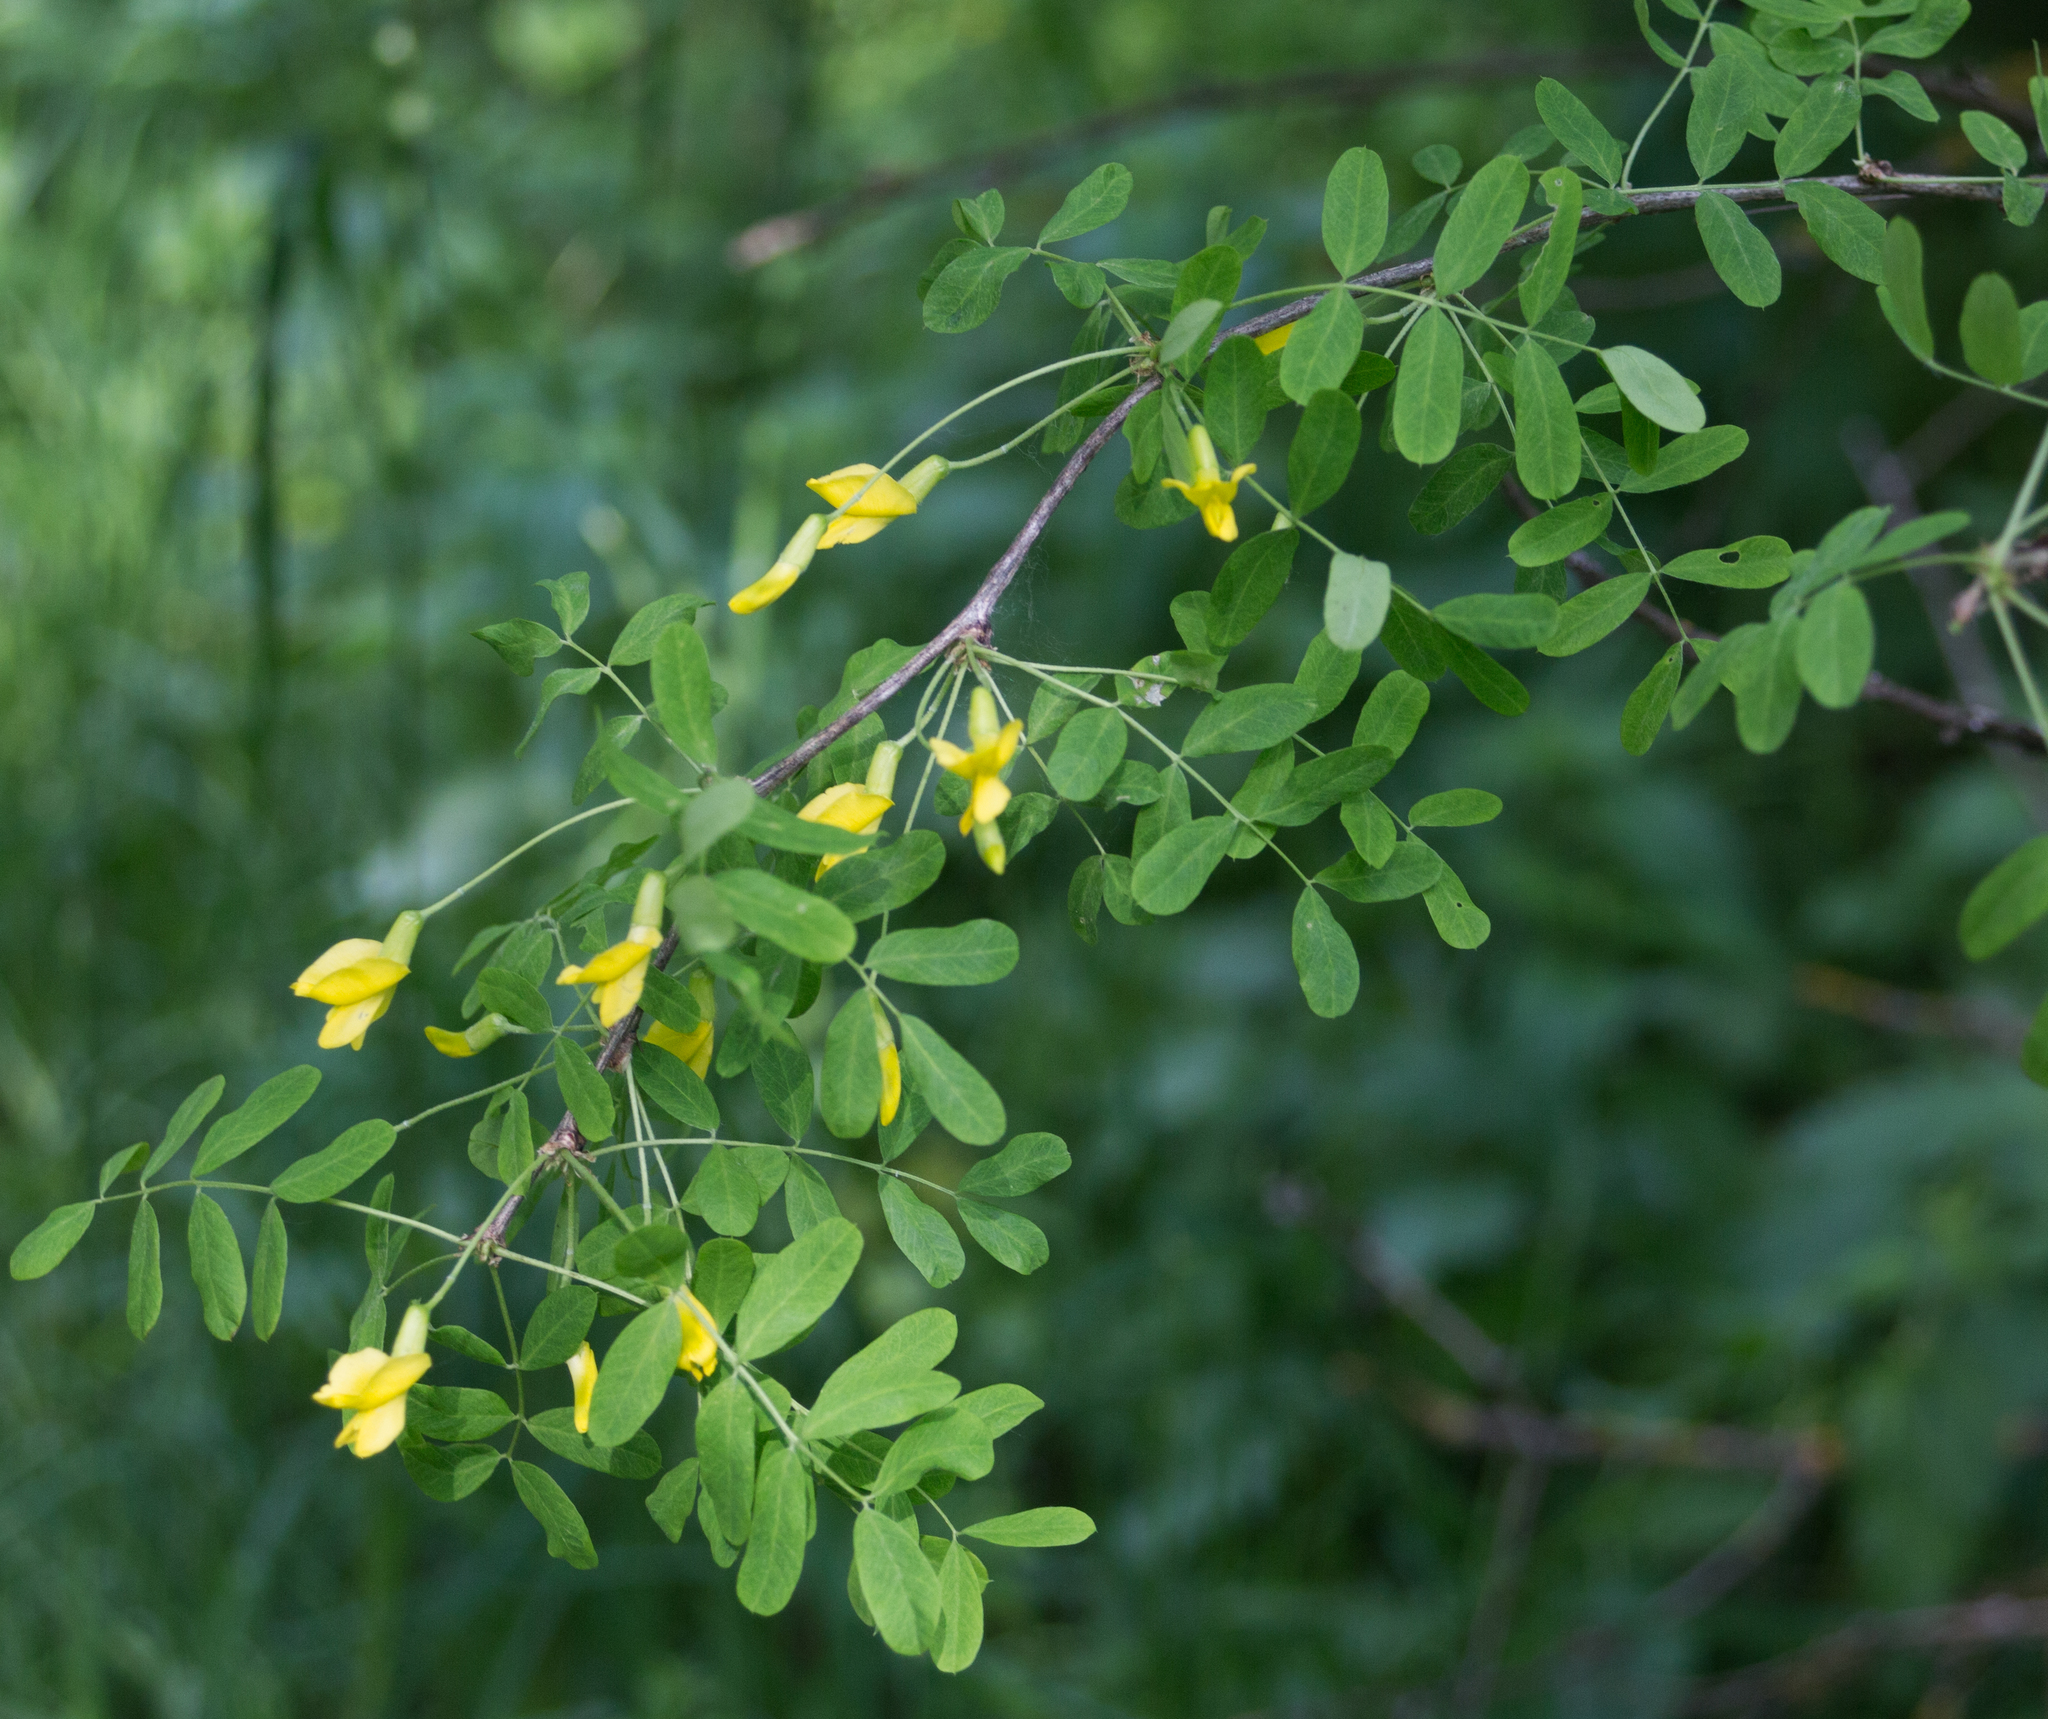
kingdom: Plantae
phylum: Tracheophyta
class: Magnoliopsida
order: Fabales
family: Fabaceae
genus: Caragana
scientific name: Caragana arborescens
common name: Siberian peashrub
